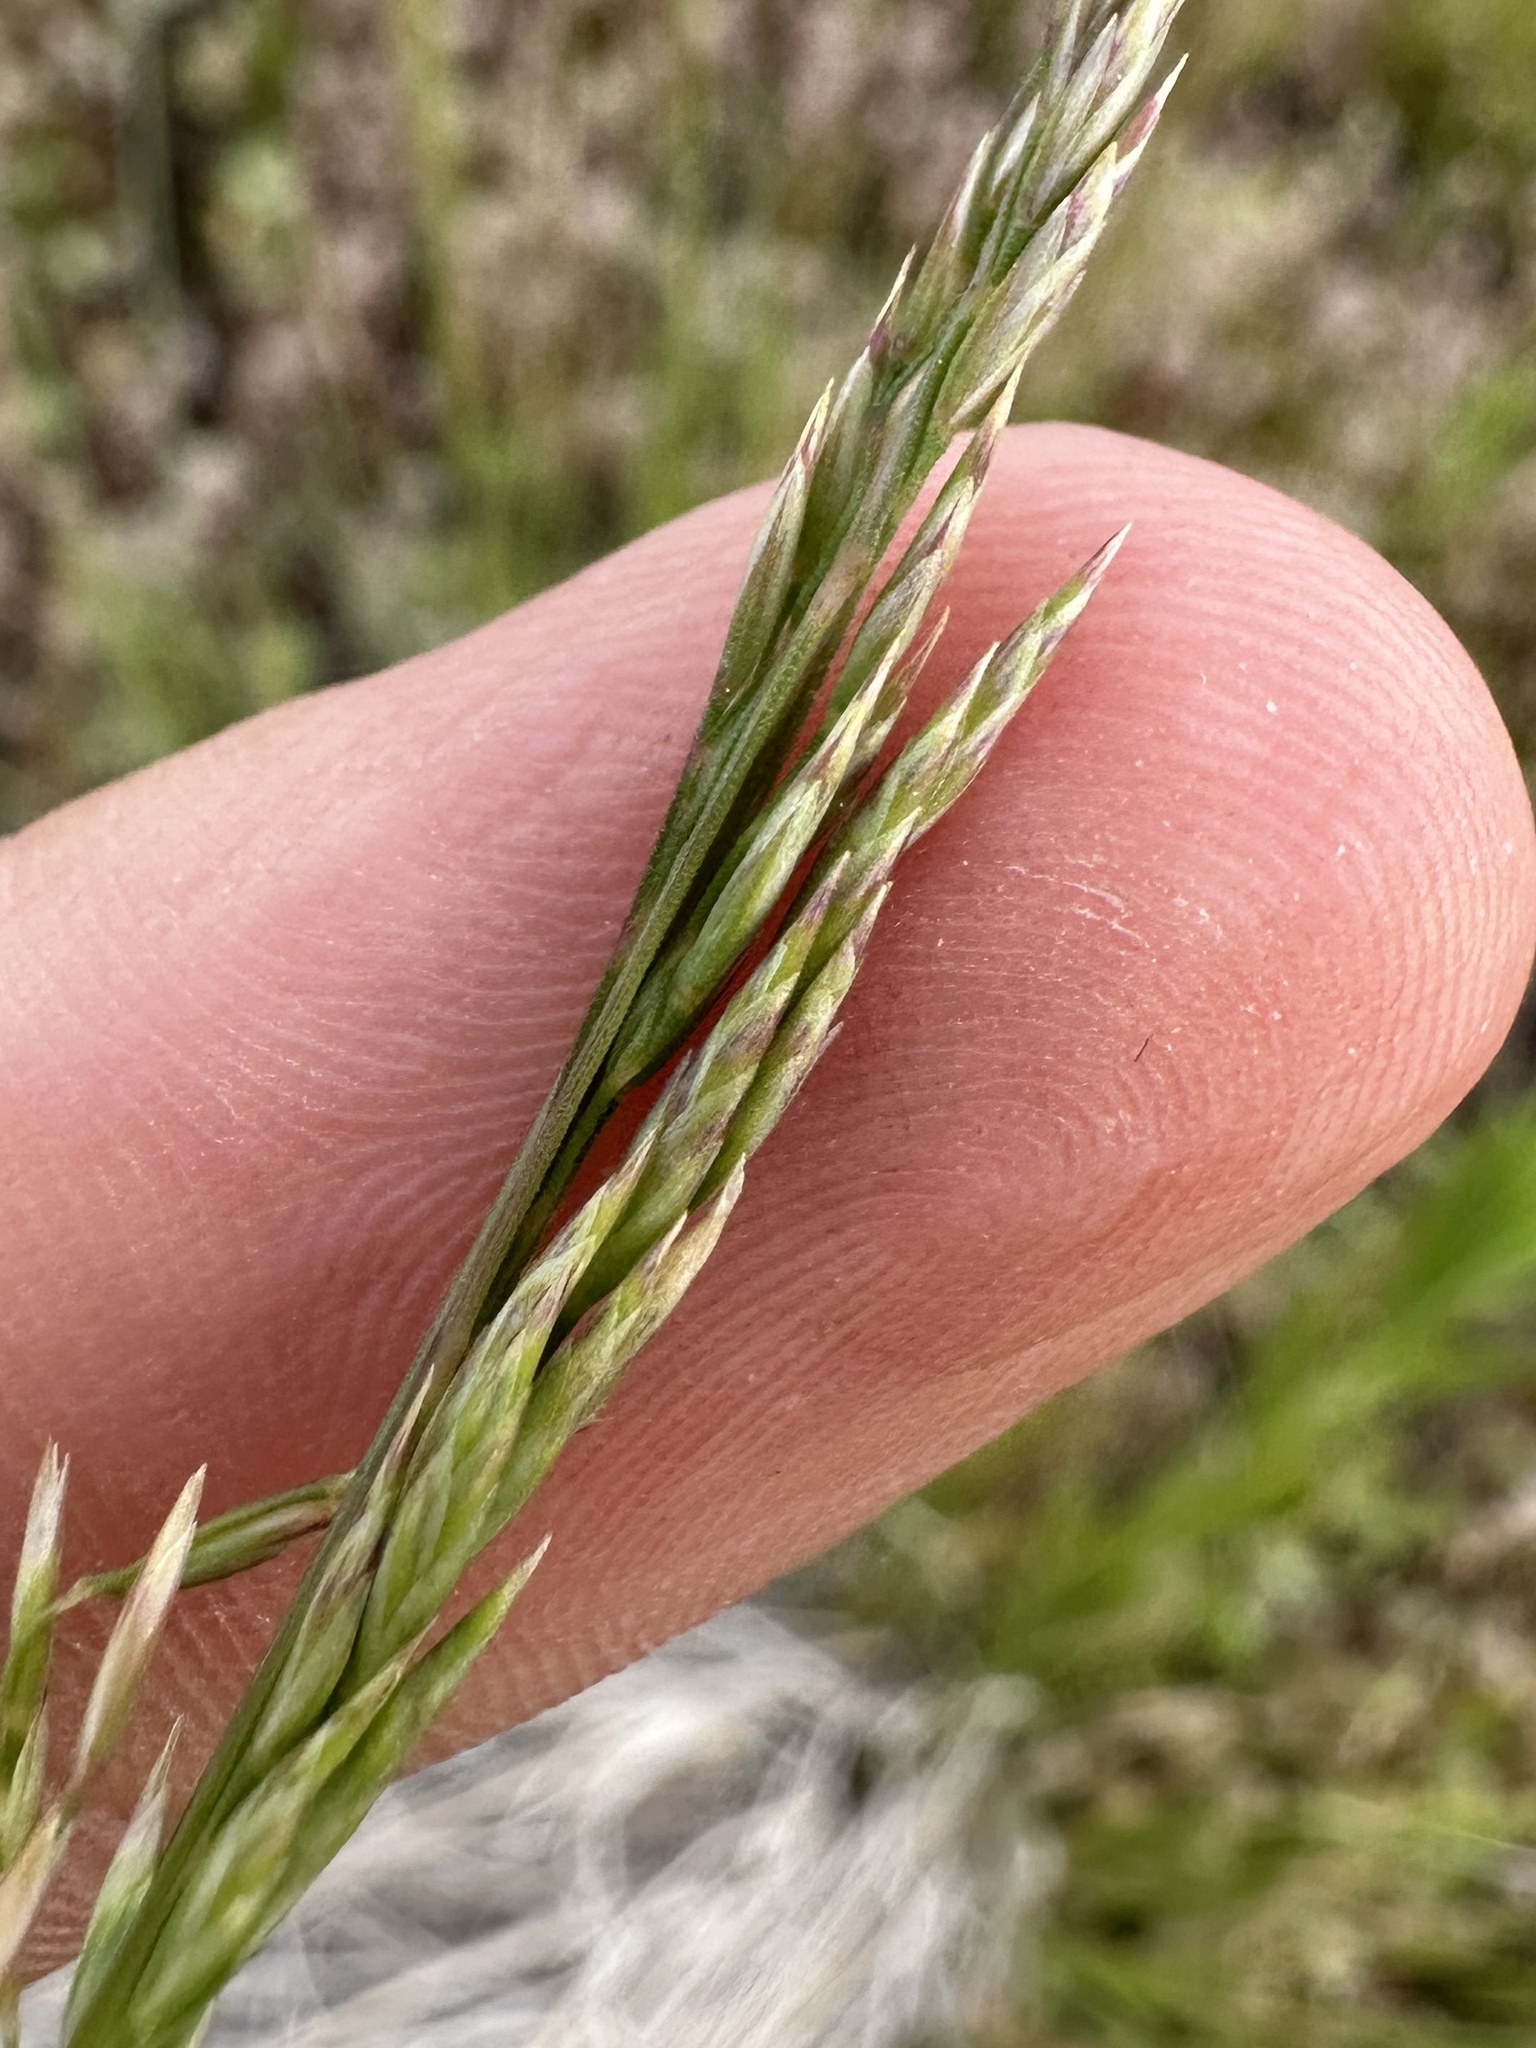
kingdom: Plantae
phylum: Tracheophyta
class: Liliopsida
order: Poales
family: Poaceae
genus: Poa
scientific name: Poa secunda
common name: Sandberg bluegrass
